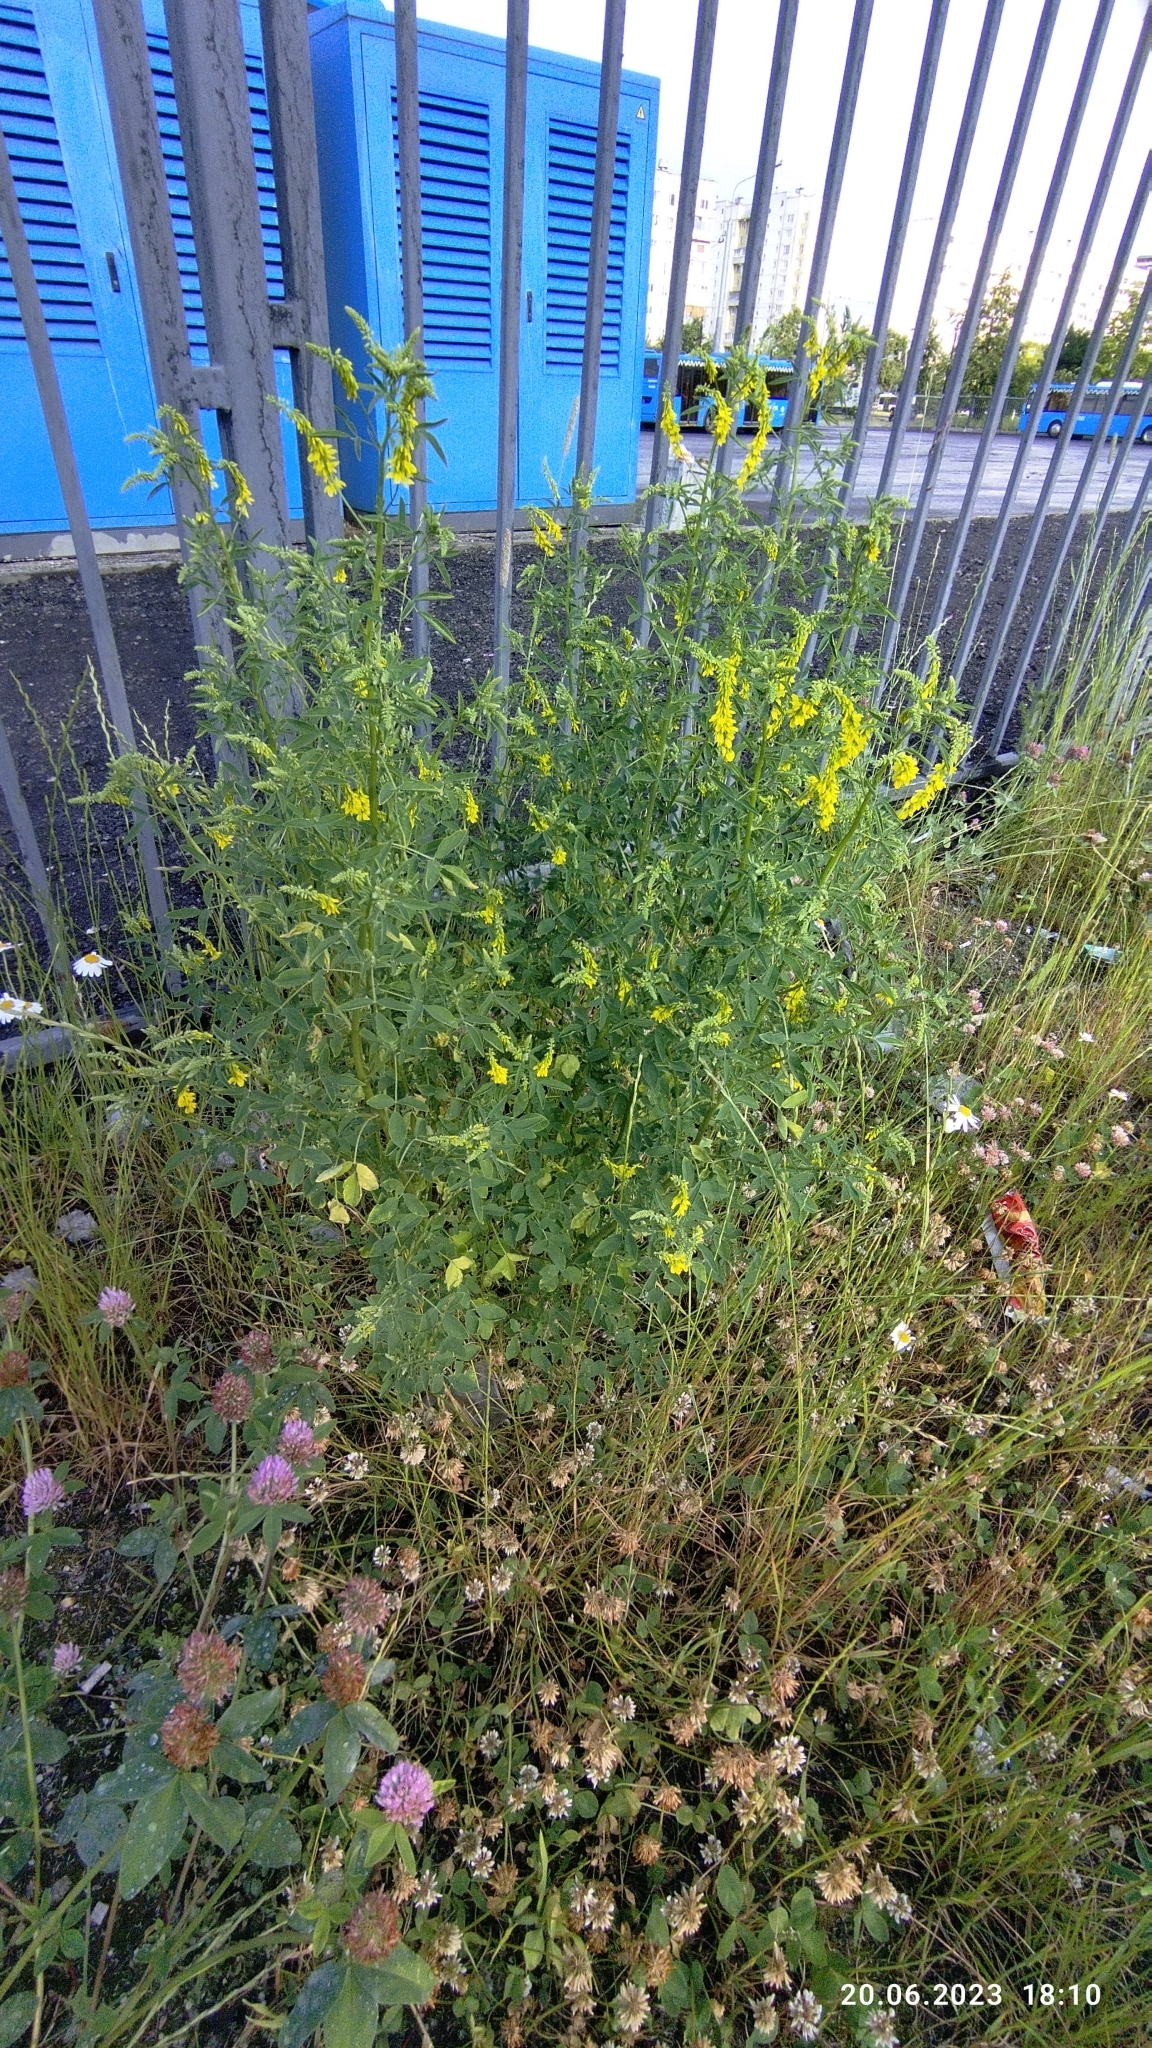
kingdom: Plantae
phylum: Tracheophyta
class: Magnoliopsida
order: Fabales
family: Fabaceae
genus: Melilotus
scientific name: Melilotus officinalis
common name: Sweetclover
